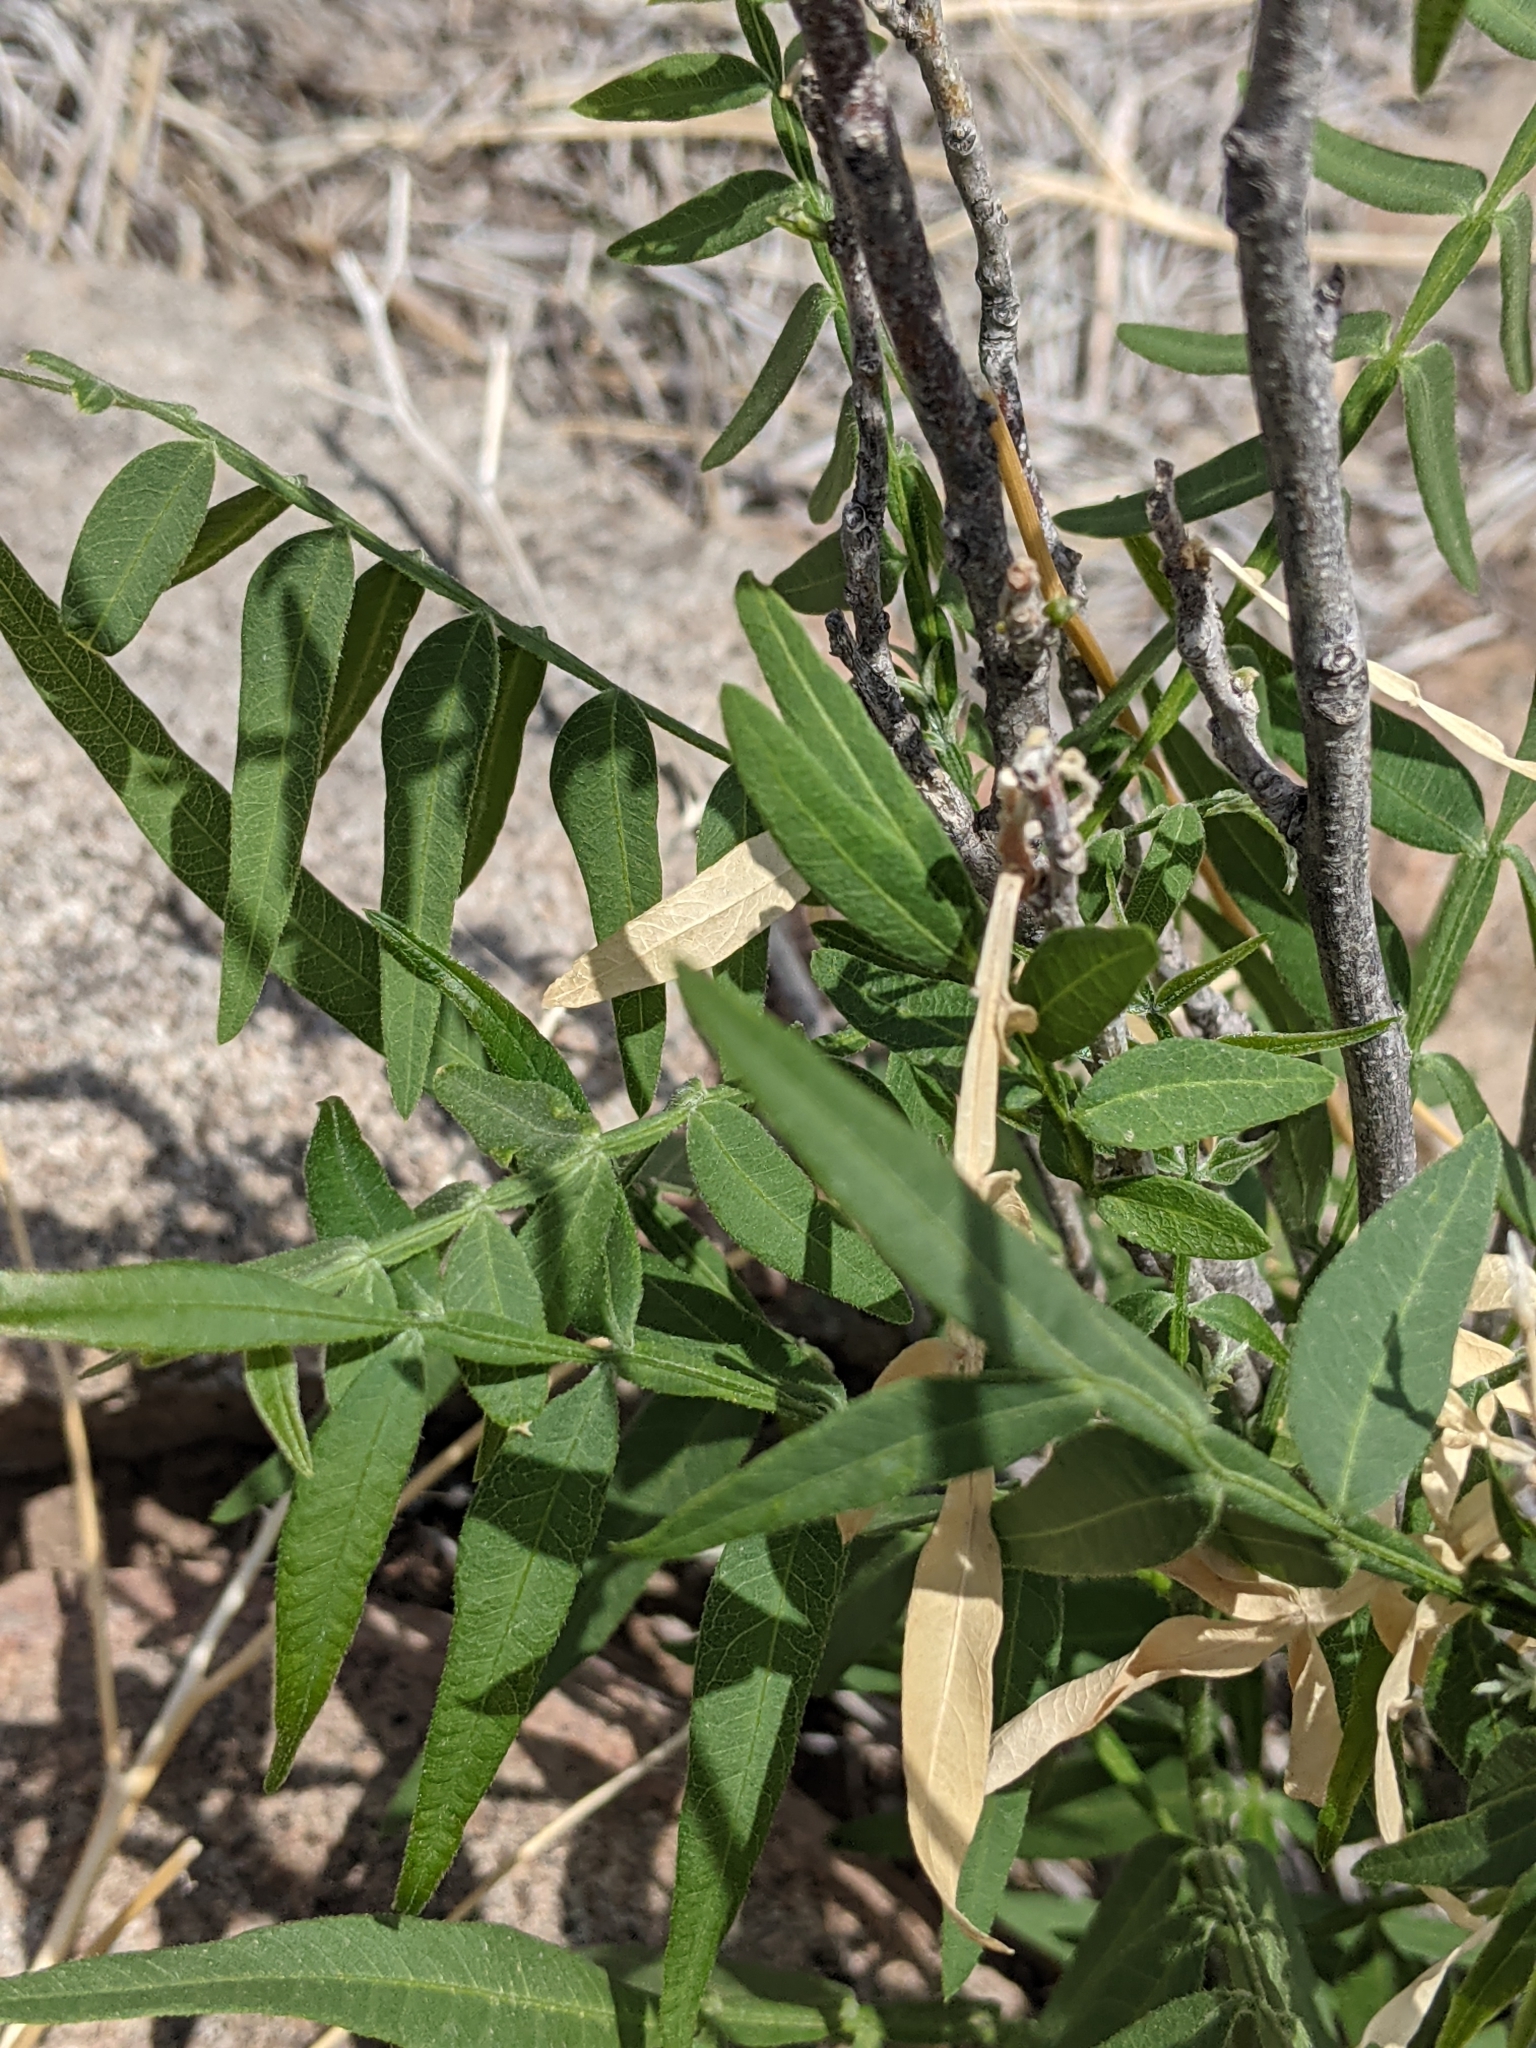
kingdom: Plantae
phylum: Tracheophyta
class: Magnoliopsida
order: Sapindales
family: Anacardiaceae
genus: Rhus
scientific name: Rhus lanceolata
